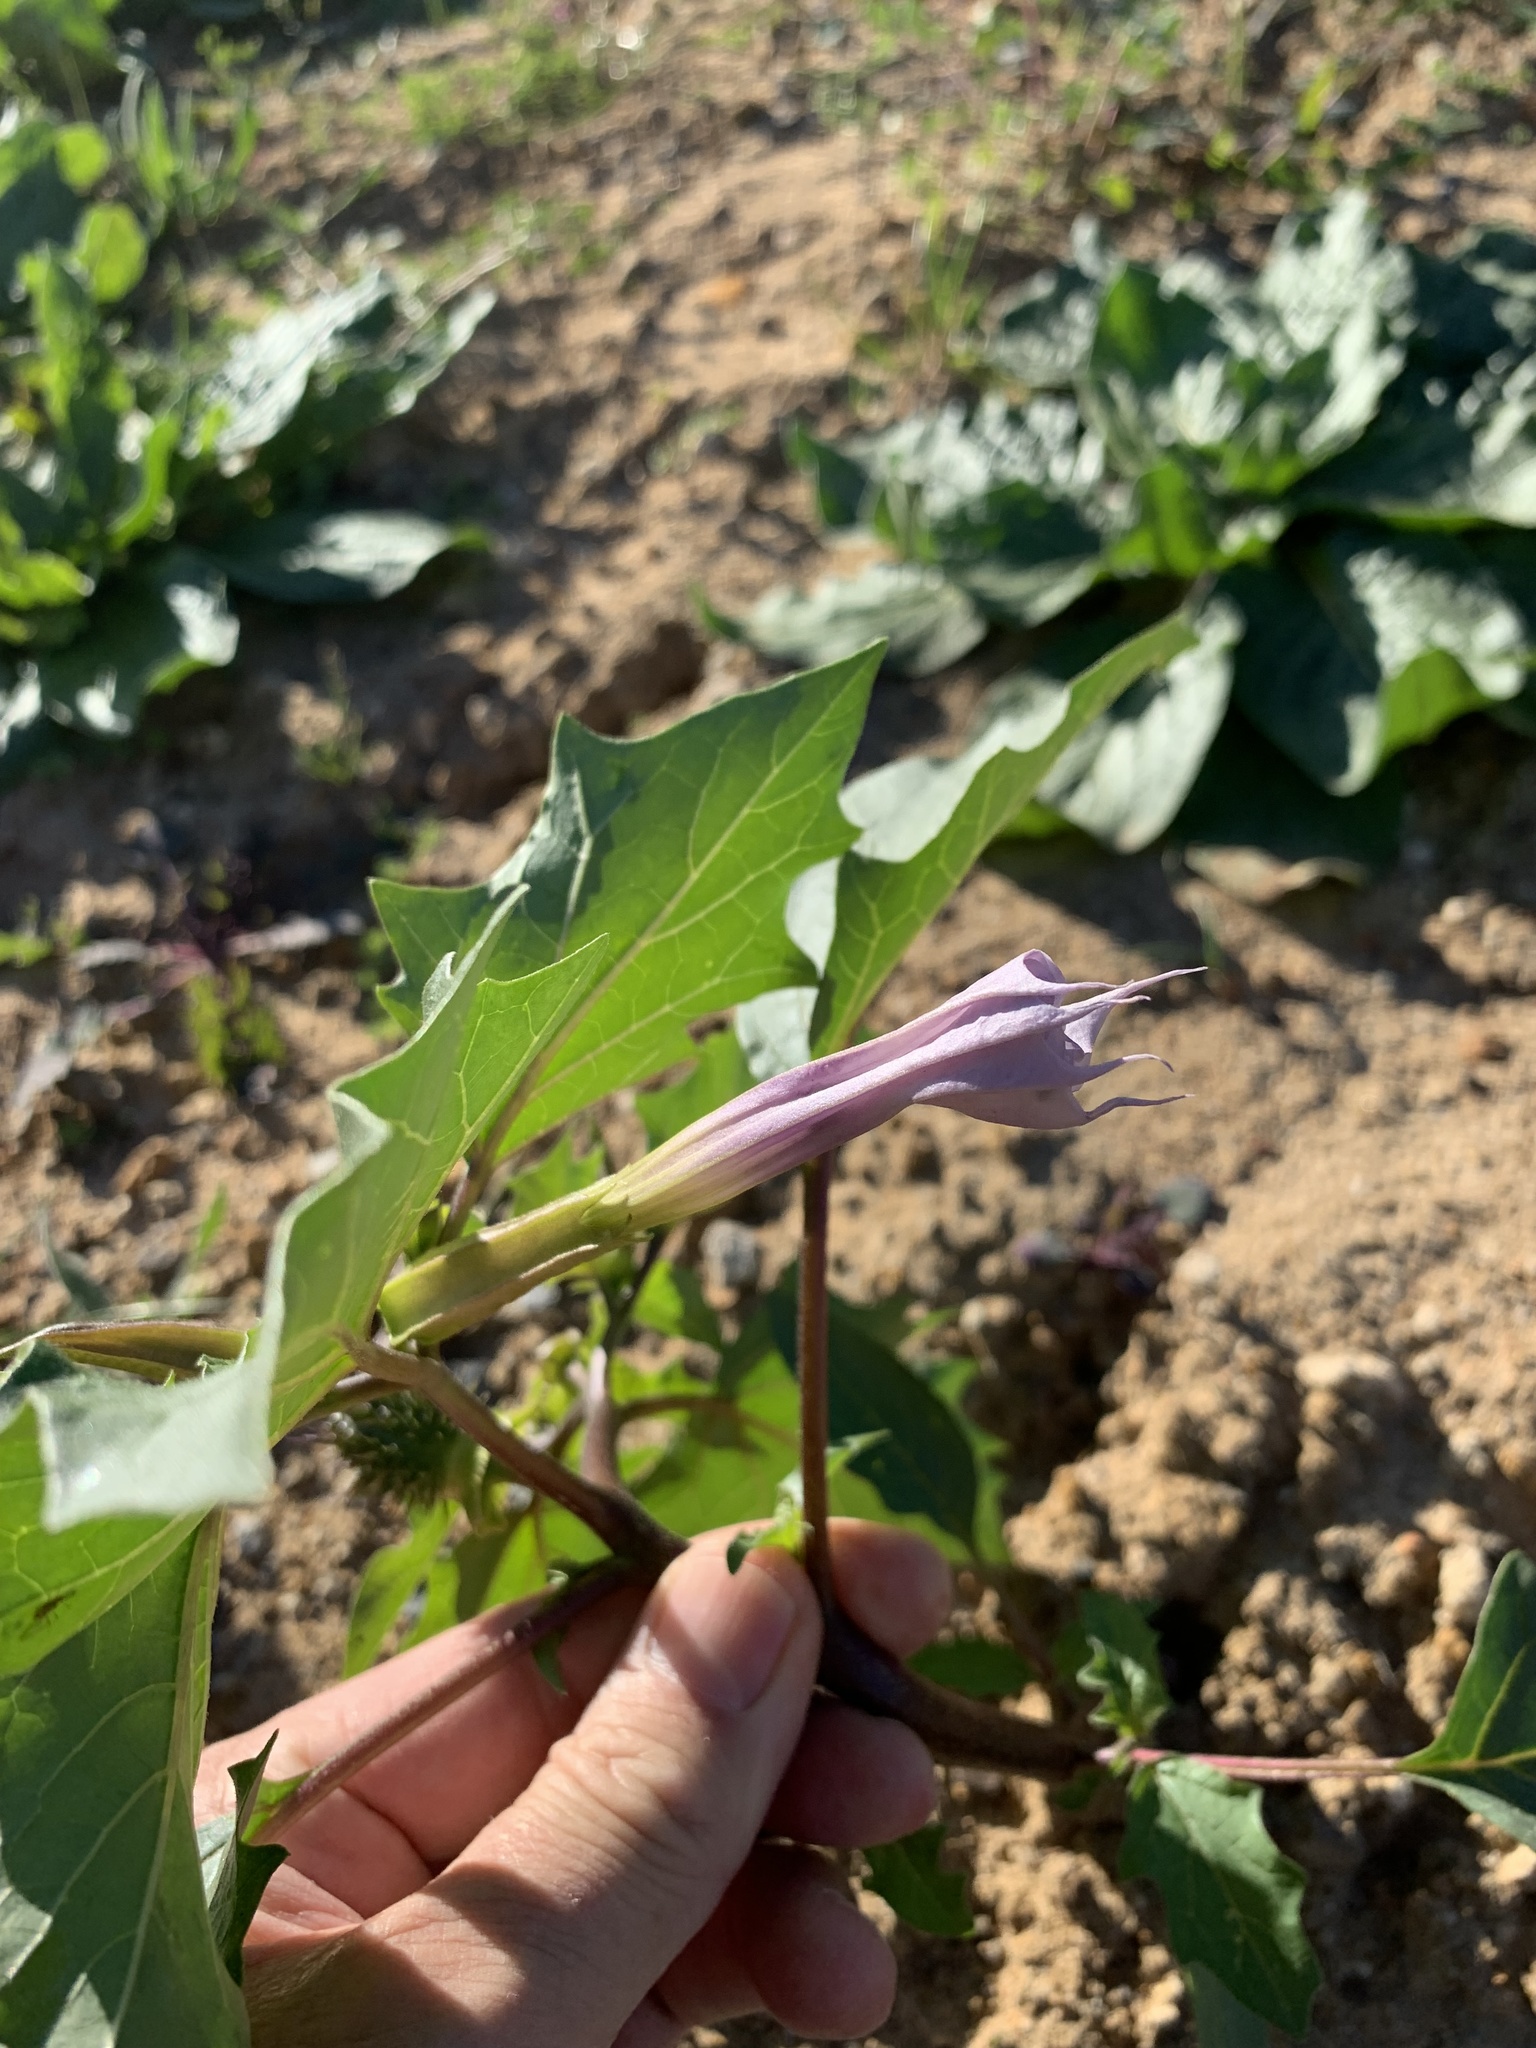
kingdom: Plantae
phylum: Tracheophyta
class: Magnoliopsida
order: Solanales
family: Solanaceae
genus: Datura
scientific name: Datura stramonium
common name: Thorn-apple
